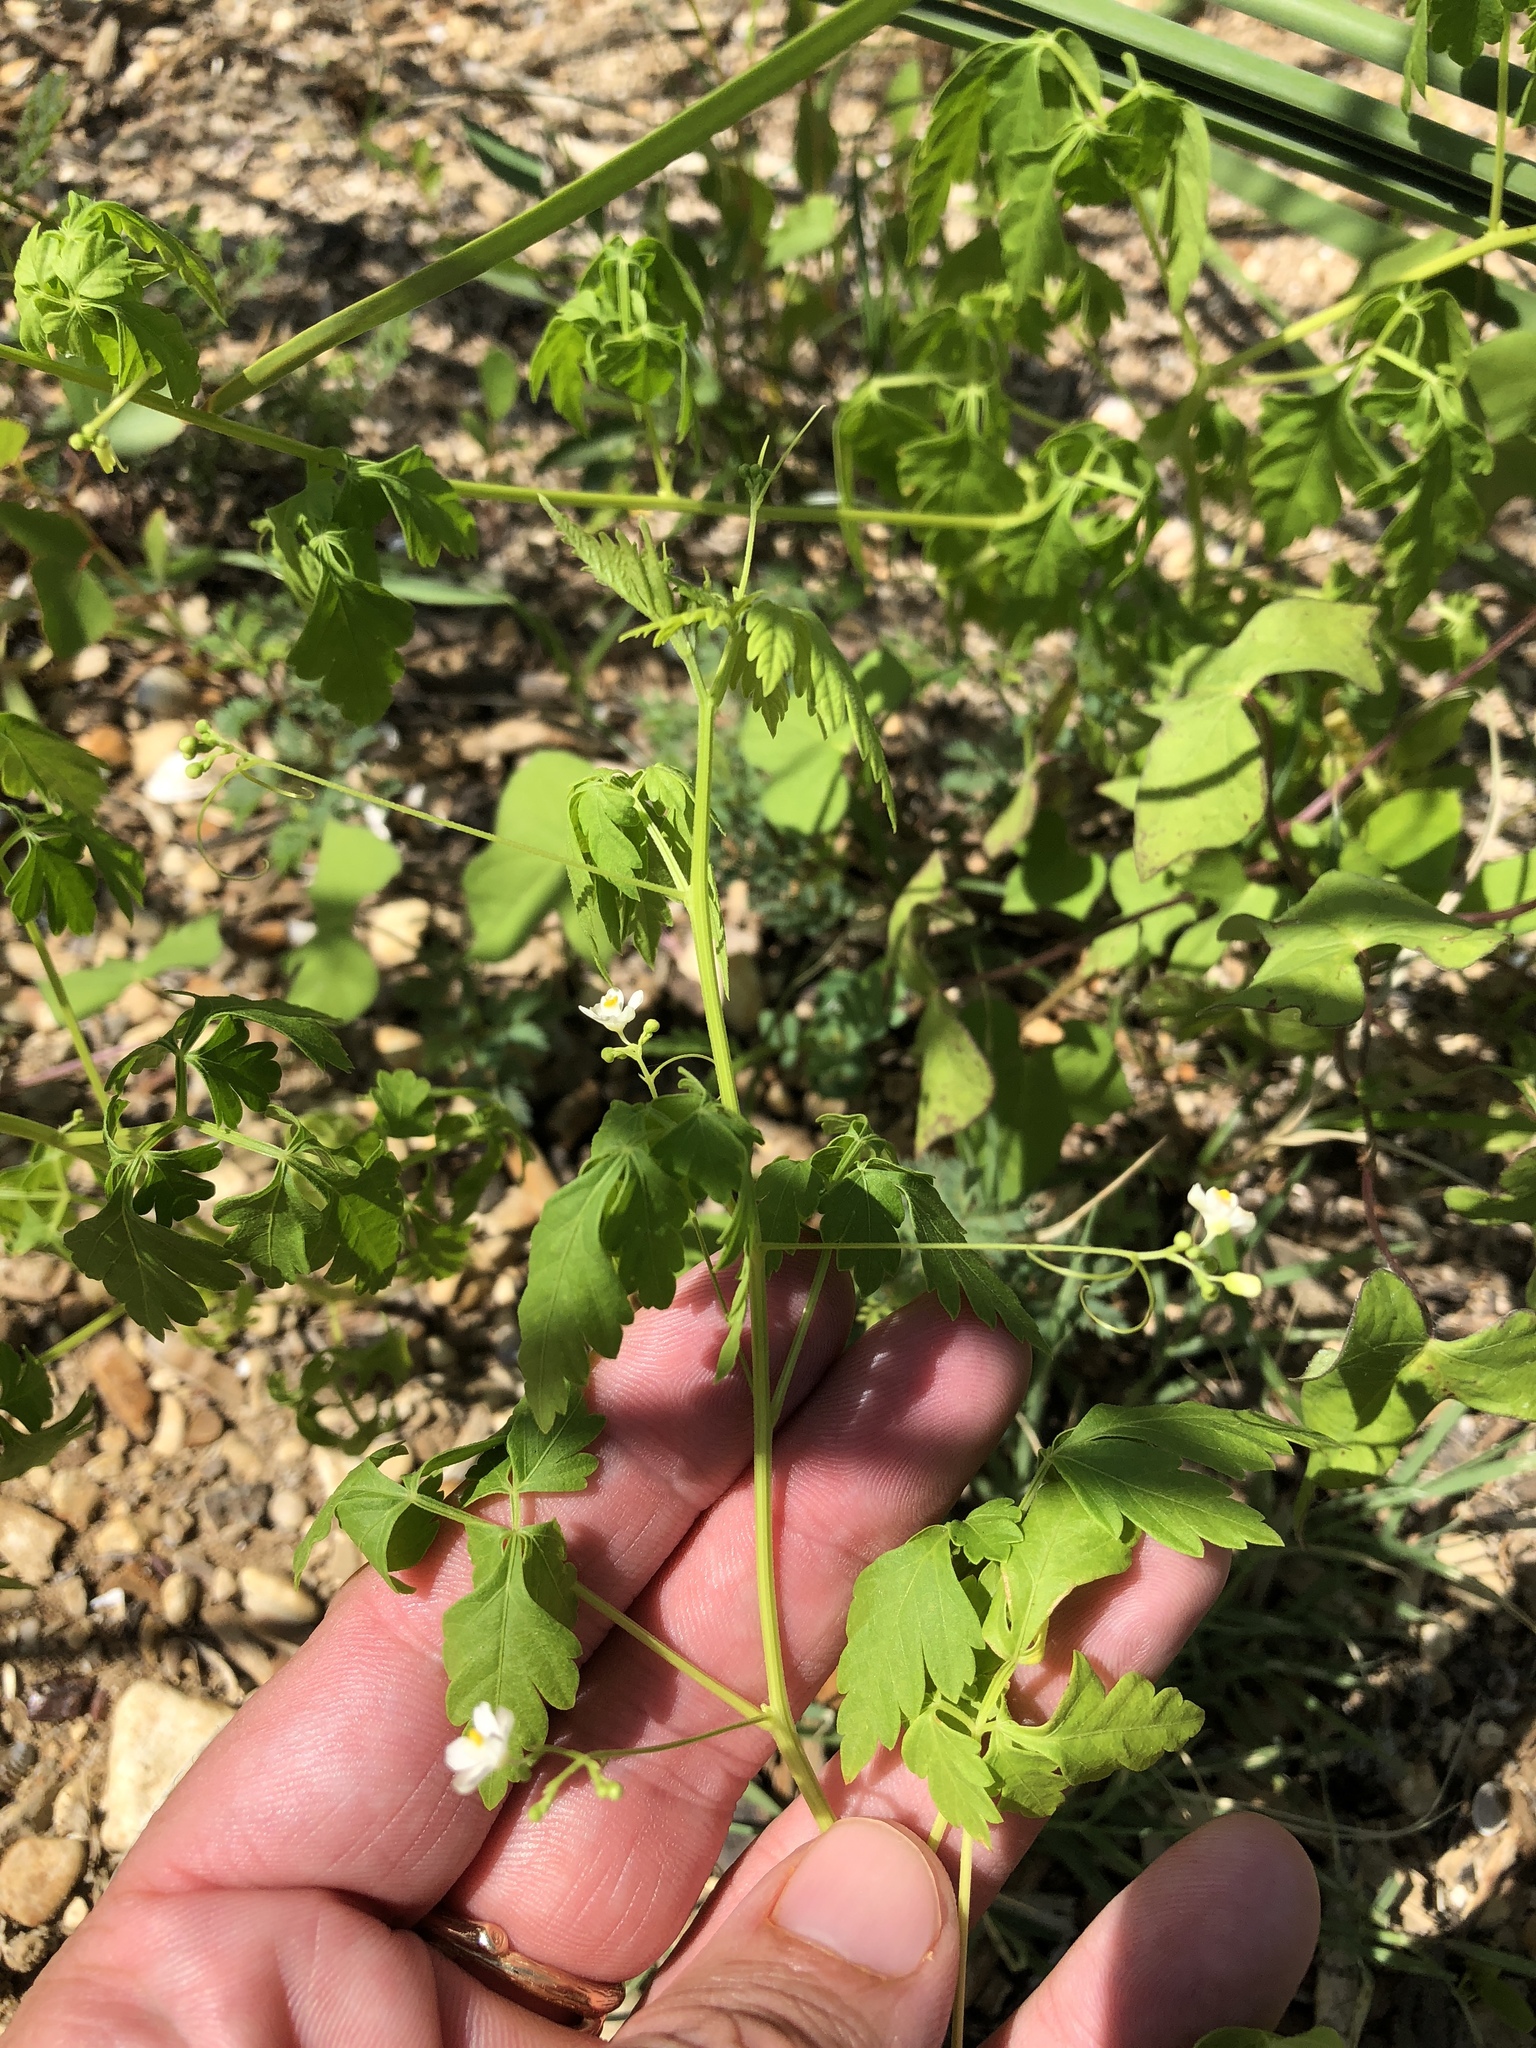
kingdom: Plantae
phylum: Tracheophyta
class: Magnoliopsida
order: Sapindales
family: Sapindaceae
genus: Cardiospermum
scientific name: Cardiospermum halicacabum
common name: Balloon vine
